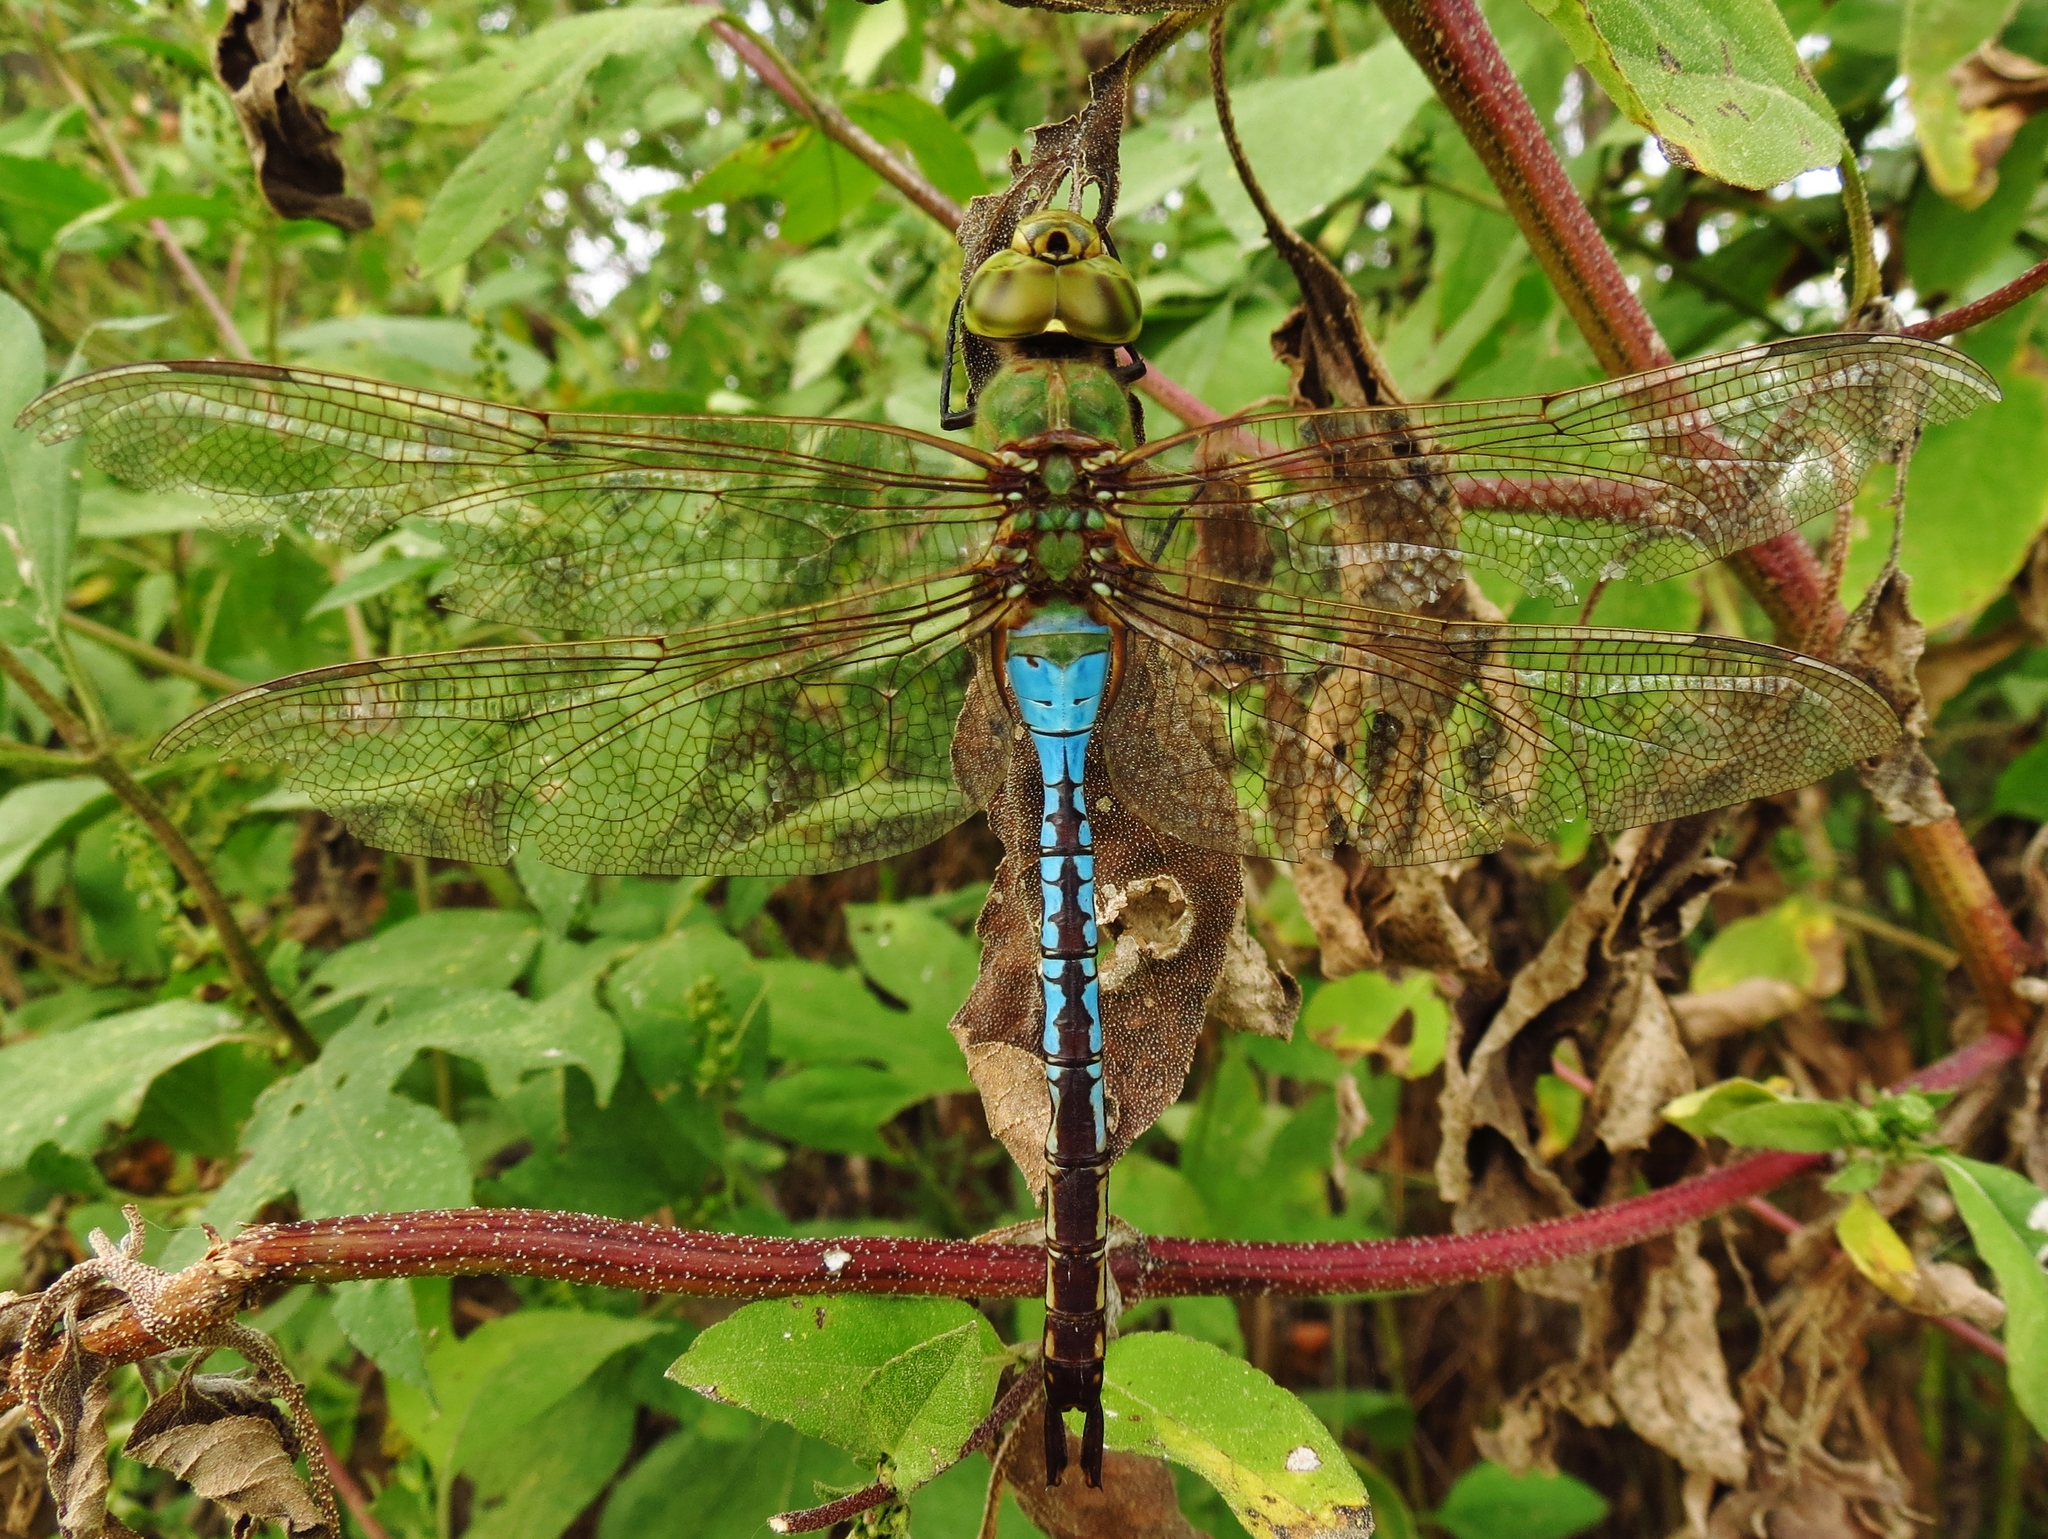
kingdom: Animalia
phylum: Arthropoda
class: Insecta
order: Odonata
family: Aeshnidae
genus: Anax
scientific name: Anax junius
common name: Common green darner
